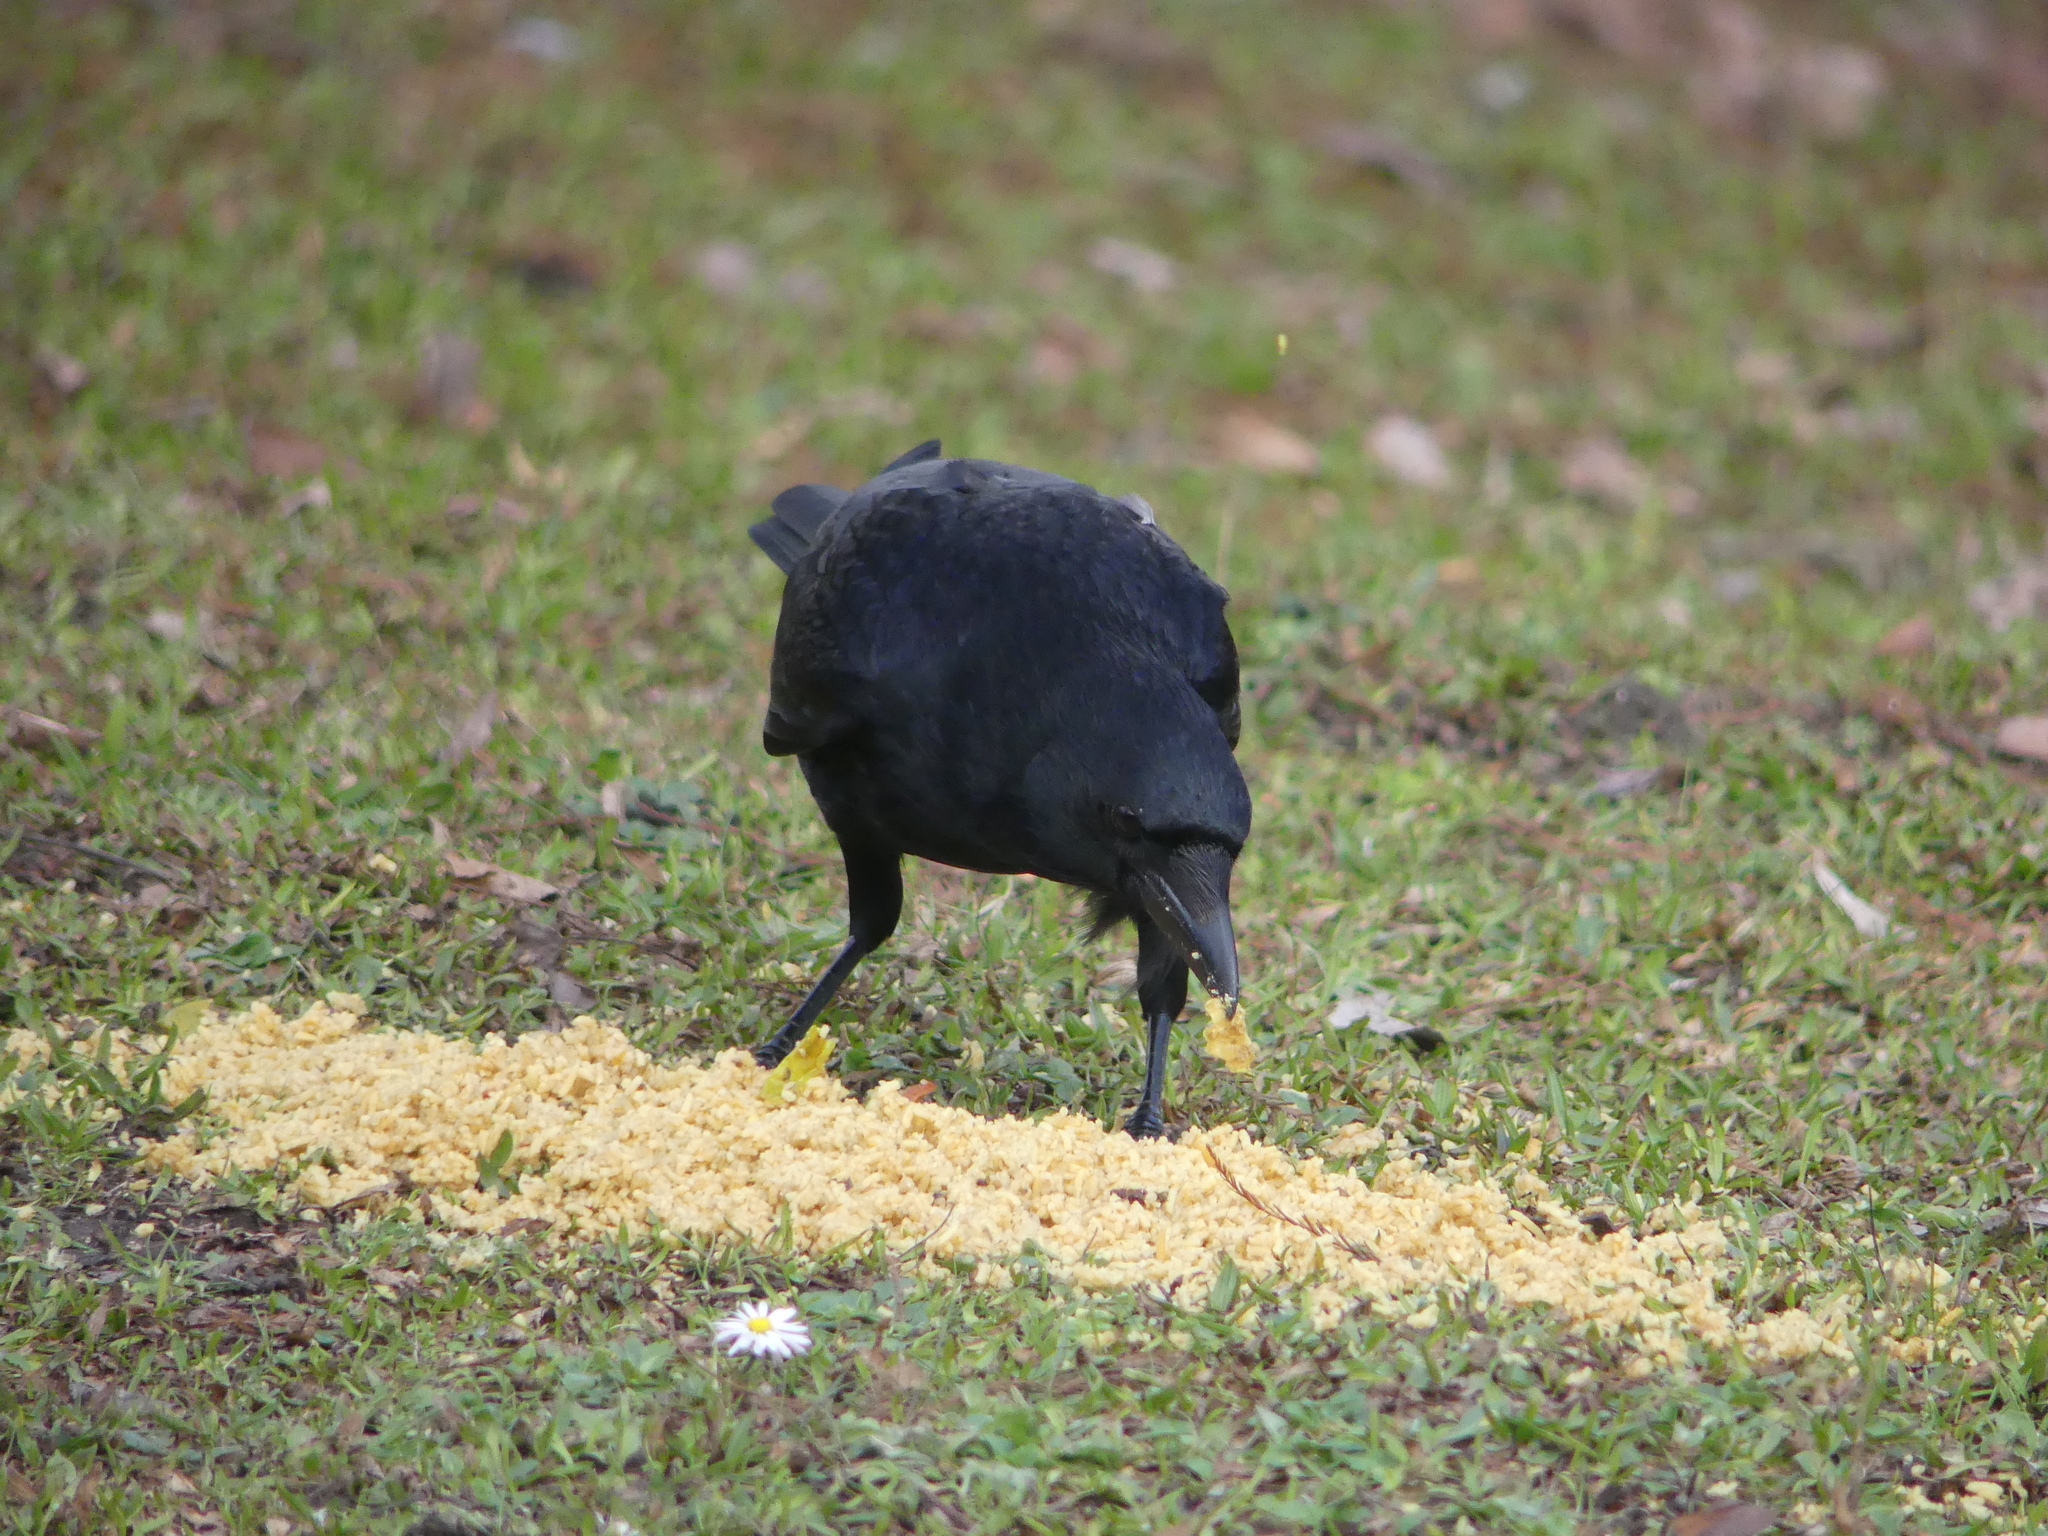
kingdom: Animalia
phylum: Chordata
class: Aves
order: Passeriformes
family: Corvidae
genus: Corvus
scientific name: Corvus corone
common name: Carrion crow
